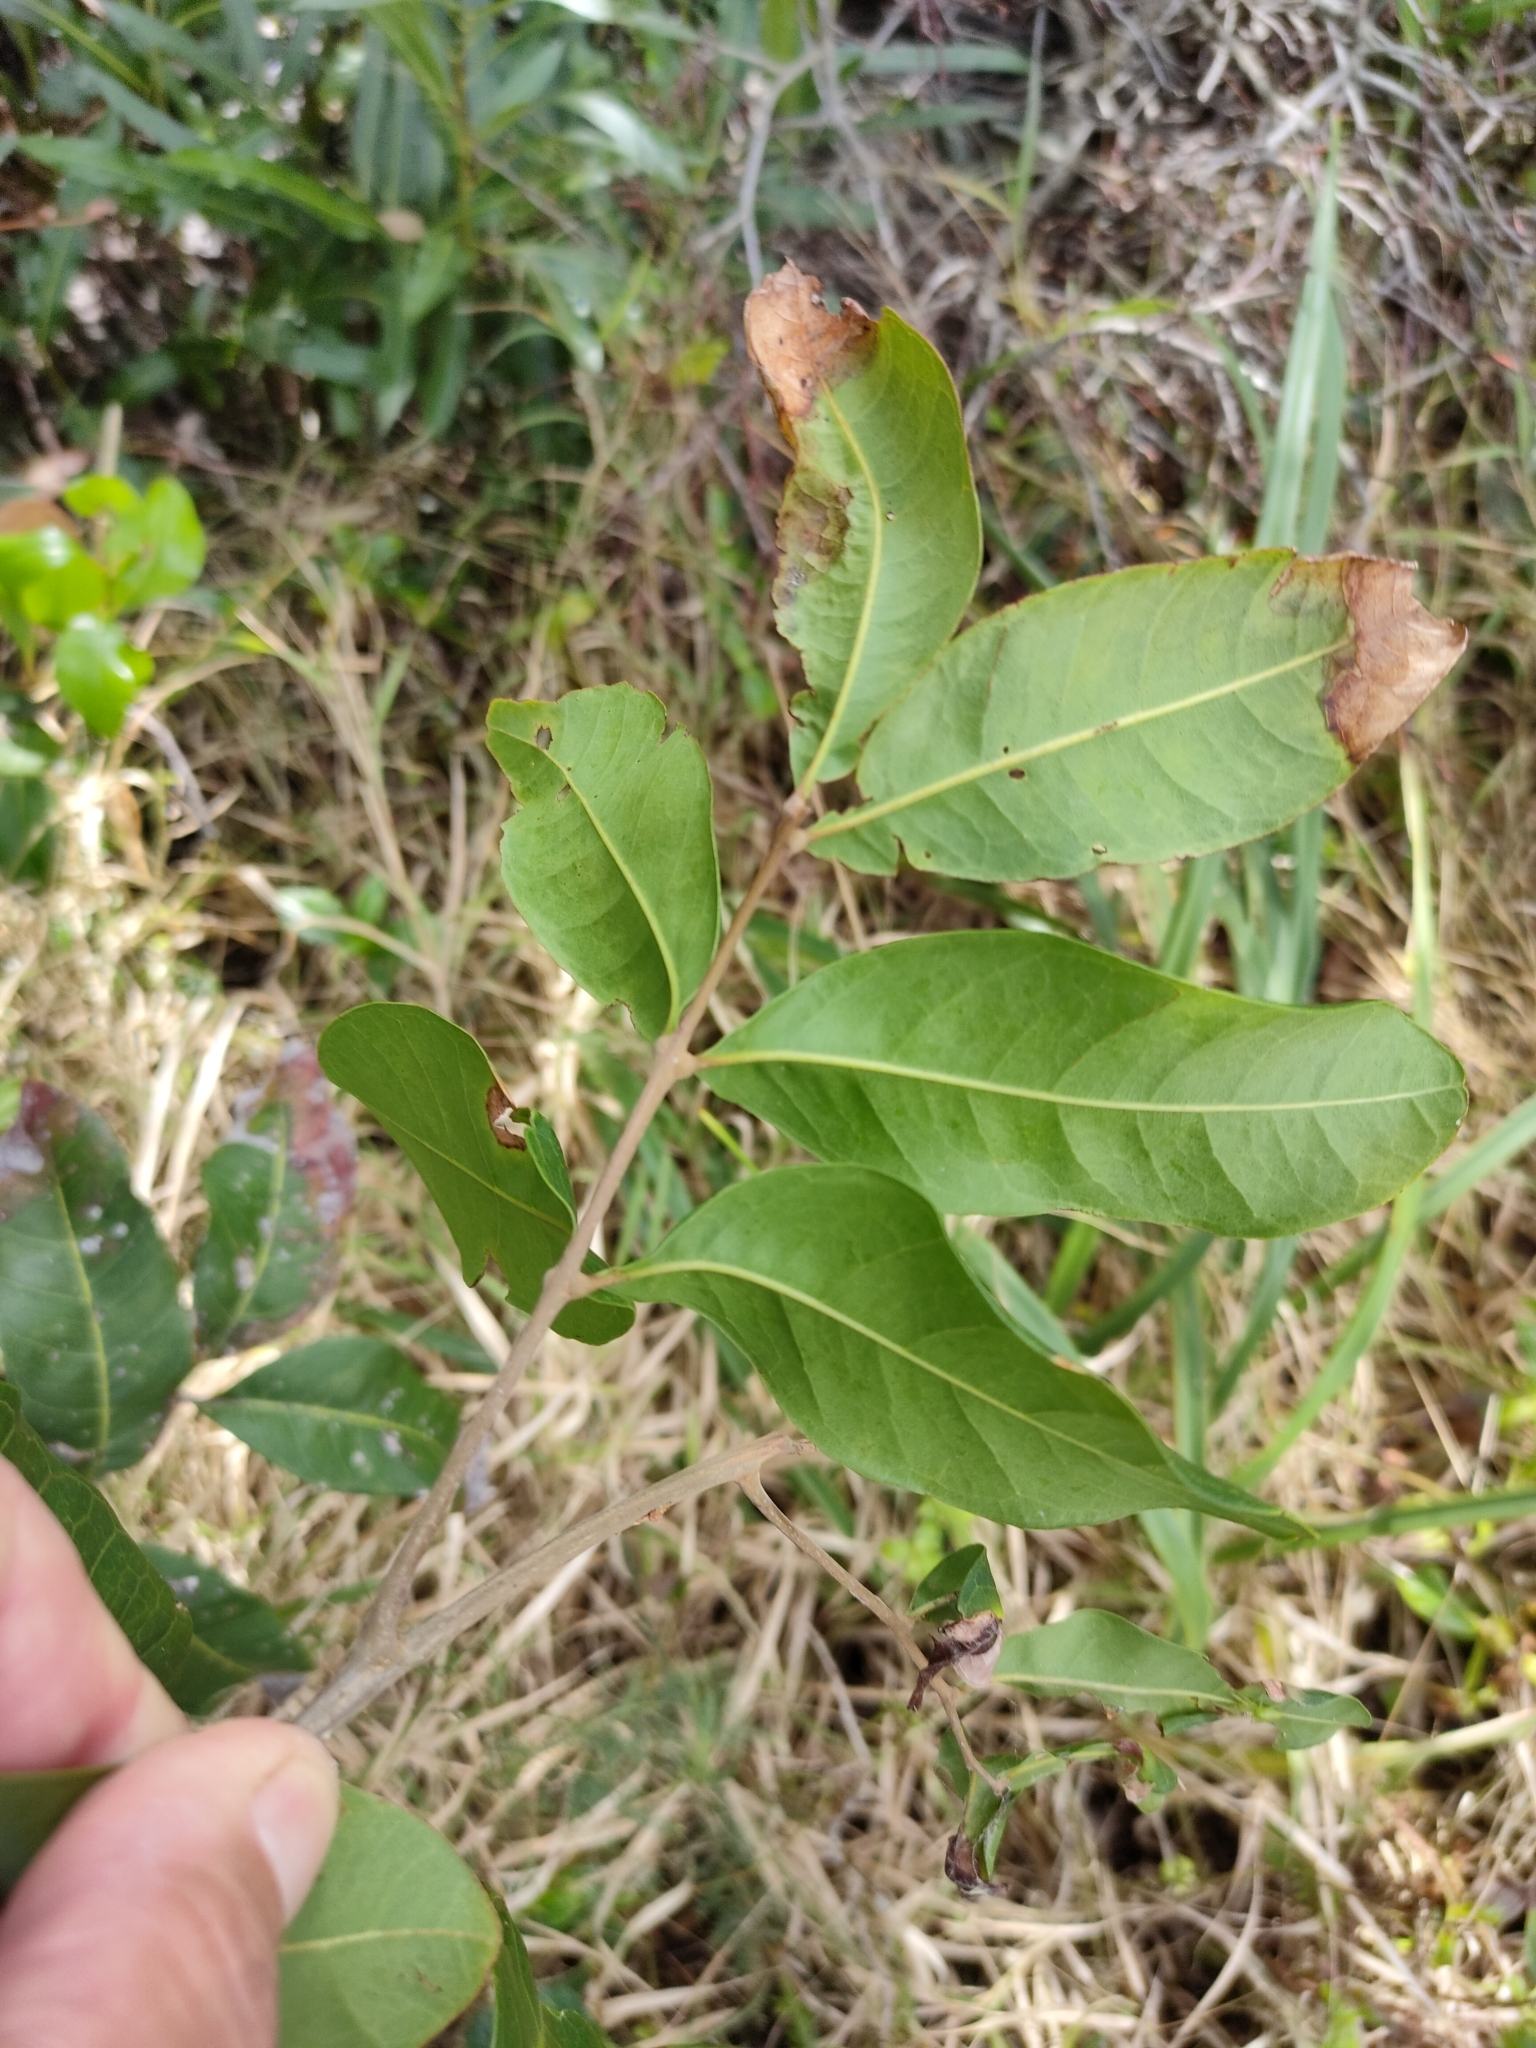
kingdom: Plantae
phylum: Tracheophyta
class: Magnoliopsida
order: Sapindales
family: Sapindaceae
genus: Cupaniopsis
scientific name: Cupaniopsis anacardioides
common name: Carrotwood
